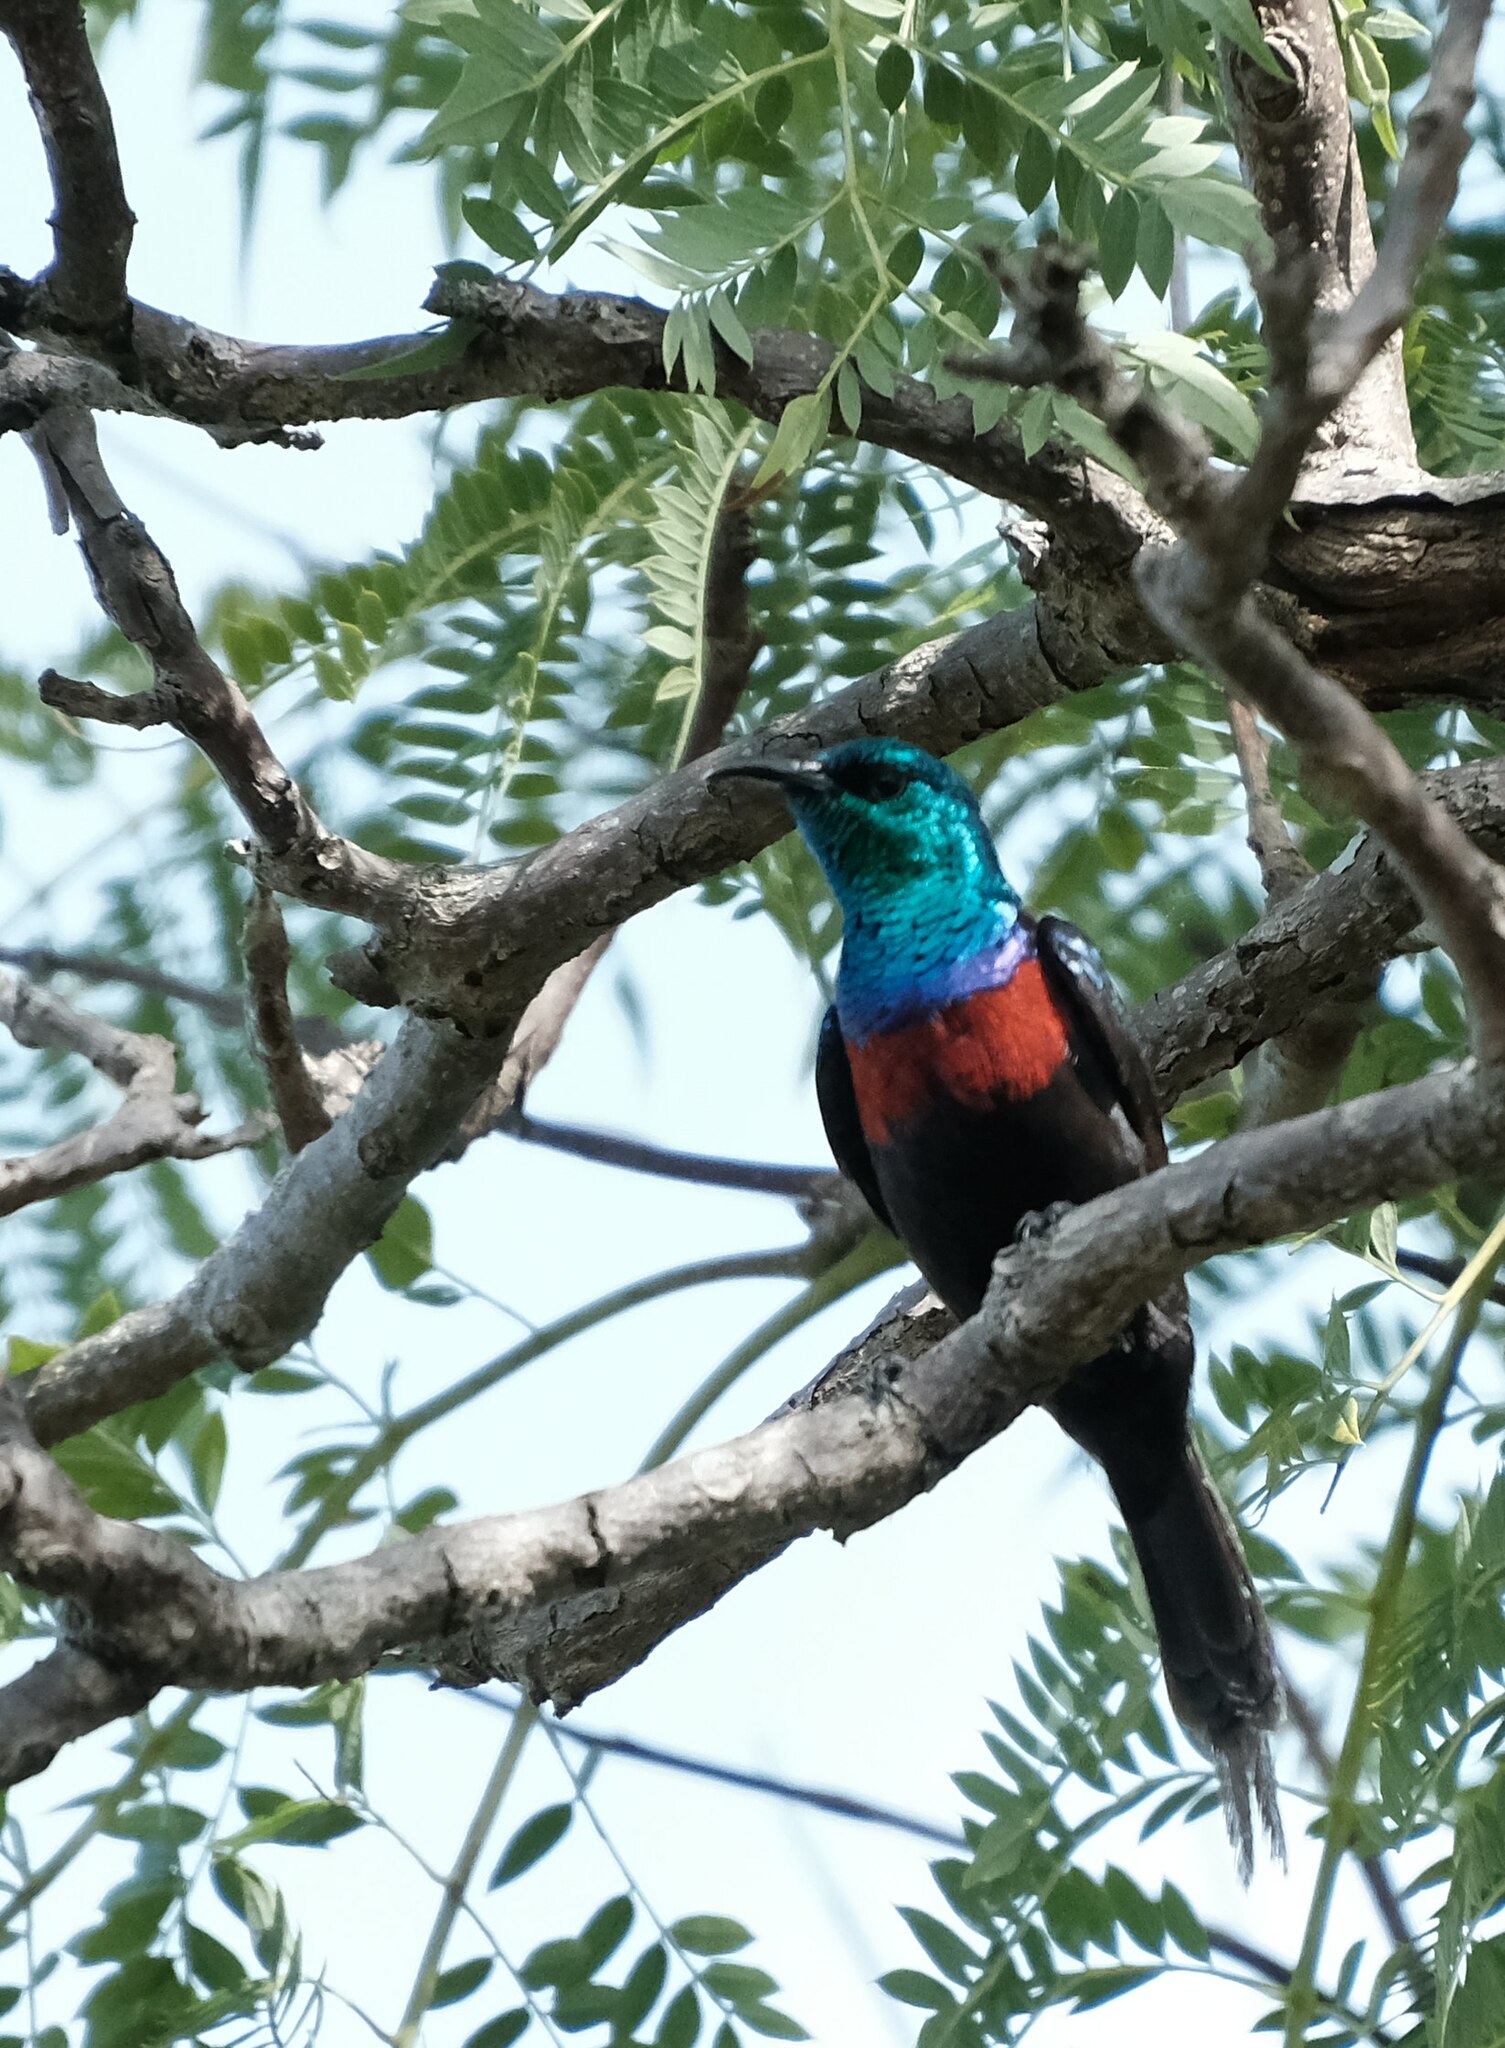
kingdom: Animalia
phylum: Chordata
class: Aves
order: Passeriformes
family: Nectariniidae
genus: Cinnyris
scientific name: Cinnyris erythrocercus
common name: Red-chested sunbird
